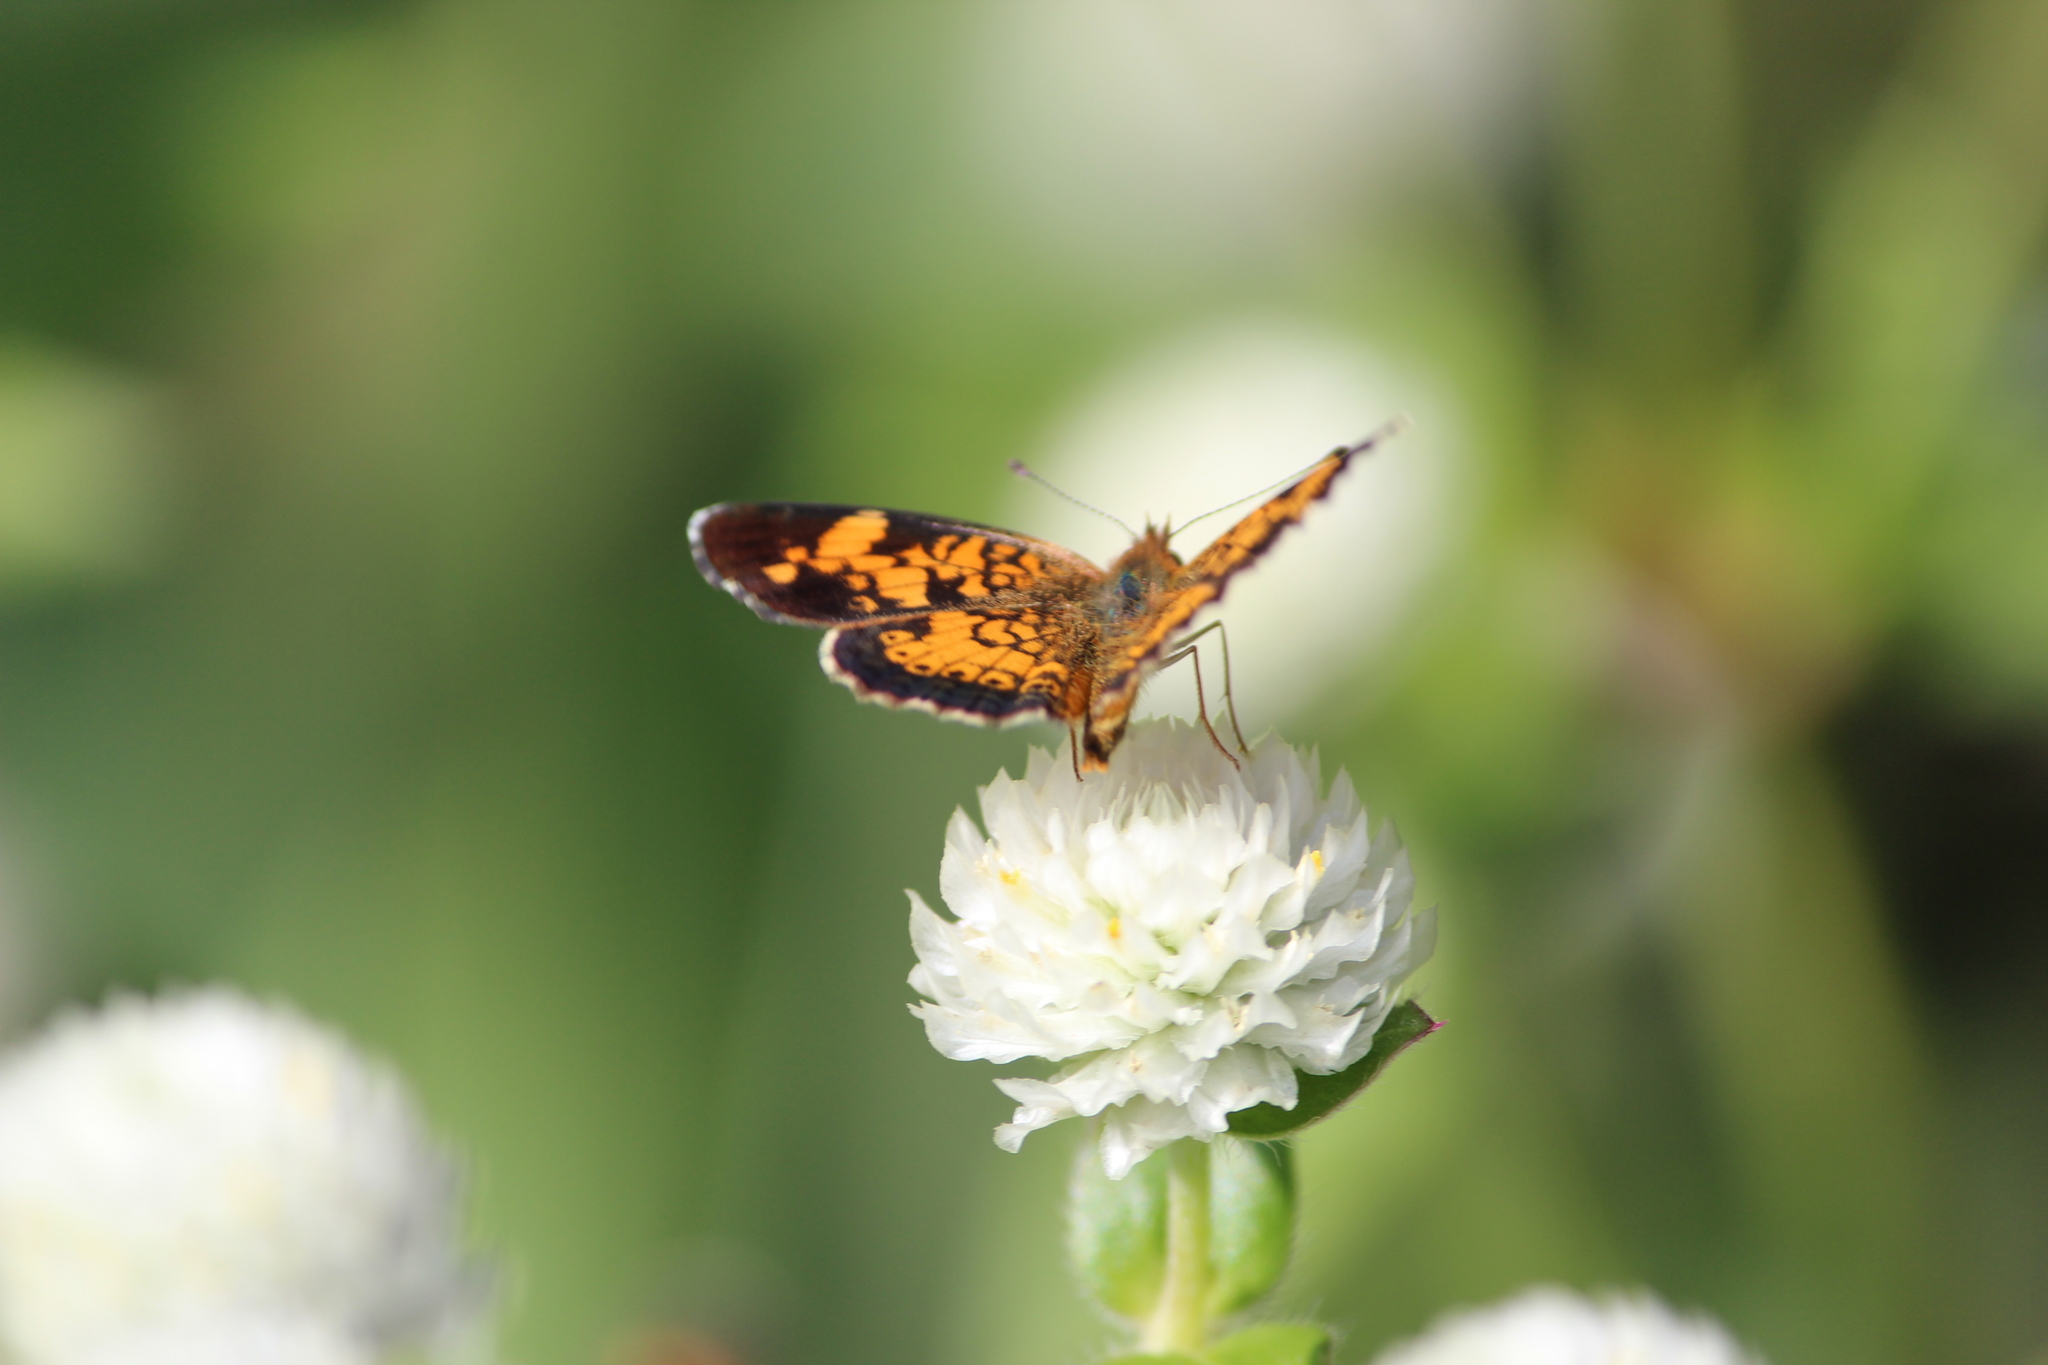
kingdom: Animalia
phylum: Arthropoda
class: Insecta
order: Lepidoptera
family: Nymphalidae
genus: Phyciodes
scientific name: Phyciodes tharos
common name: Pearl crescent
